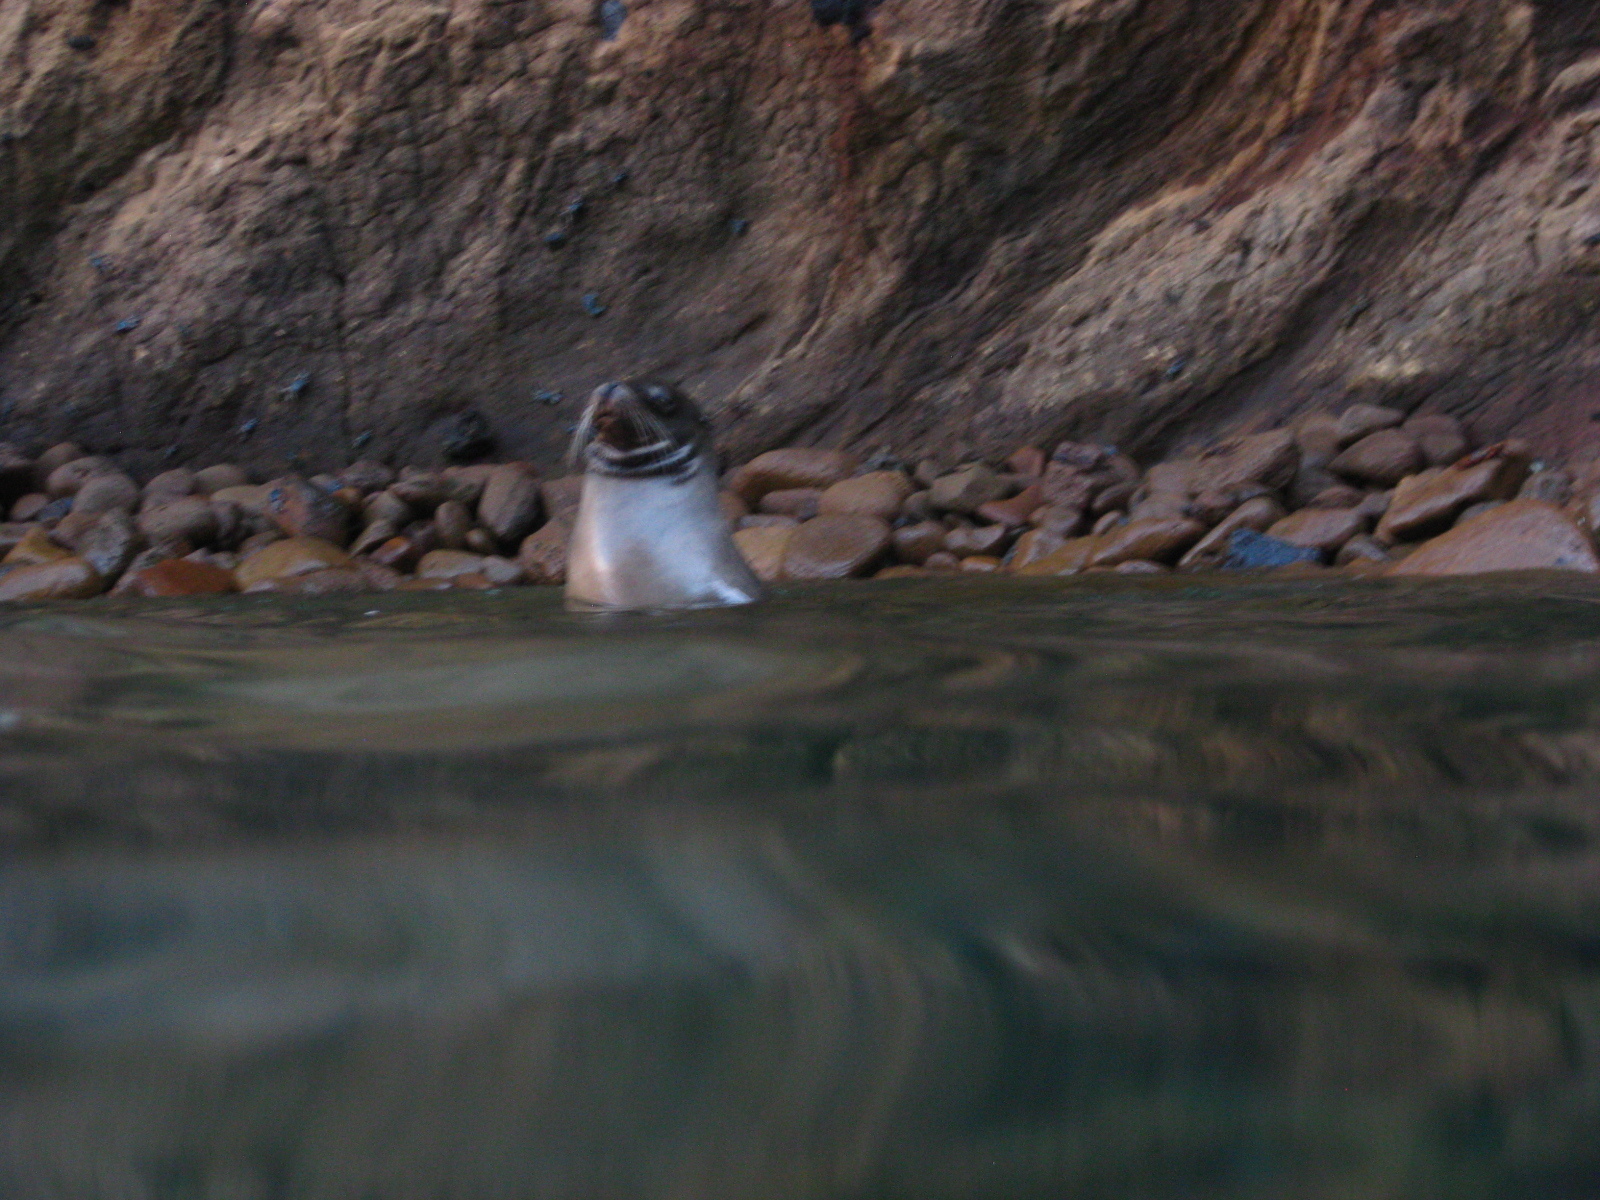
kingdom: Animalia
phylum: Chordata
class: Mammalia
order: Carnivora
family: Otariidae
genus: Zalophus
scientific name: Zalophus wollebaeki
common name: Galapagos sea lion
